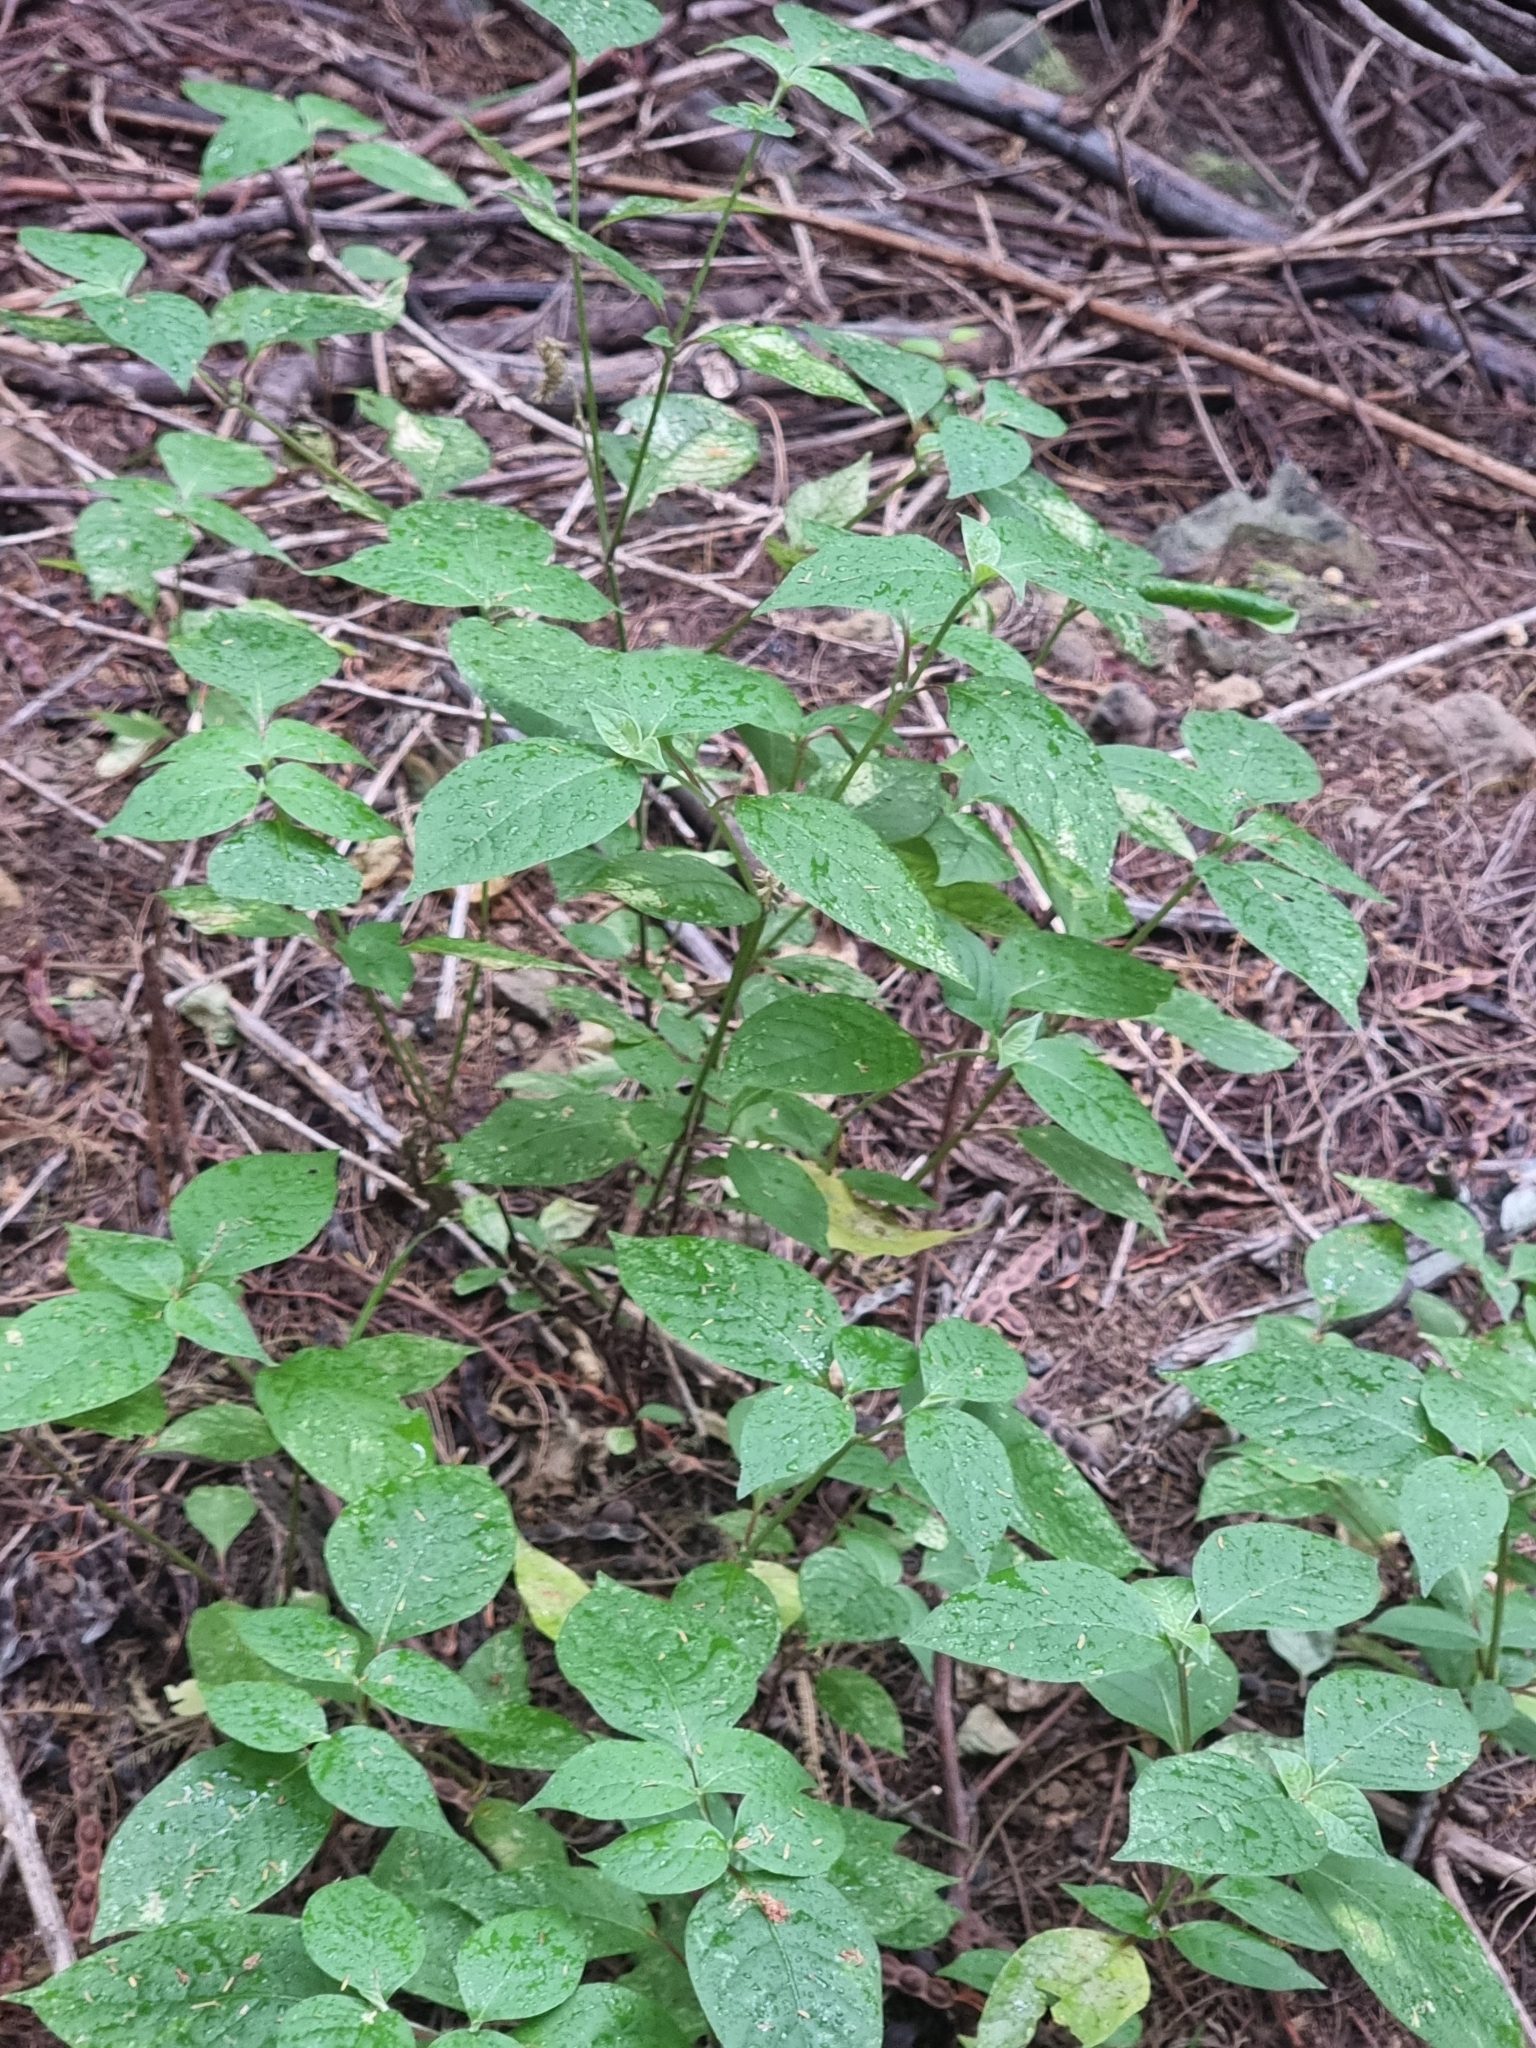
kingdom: Plantae
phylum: Tracheophyta
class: Magnoliopsida
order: Caryophyllales
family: Amaranthaceae
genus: Achyranthes
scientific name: Achyranthes aspera
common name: Devil's horsewhip
